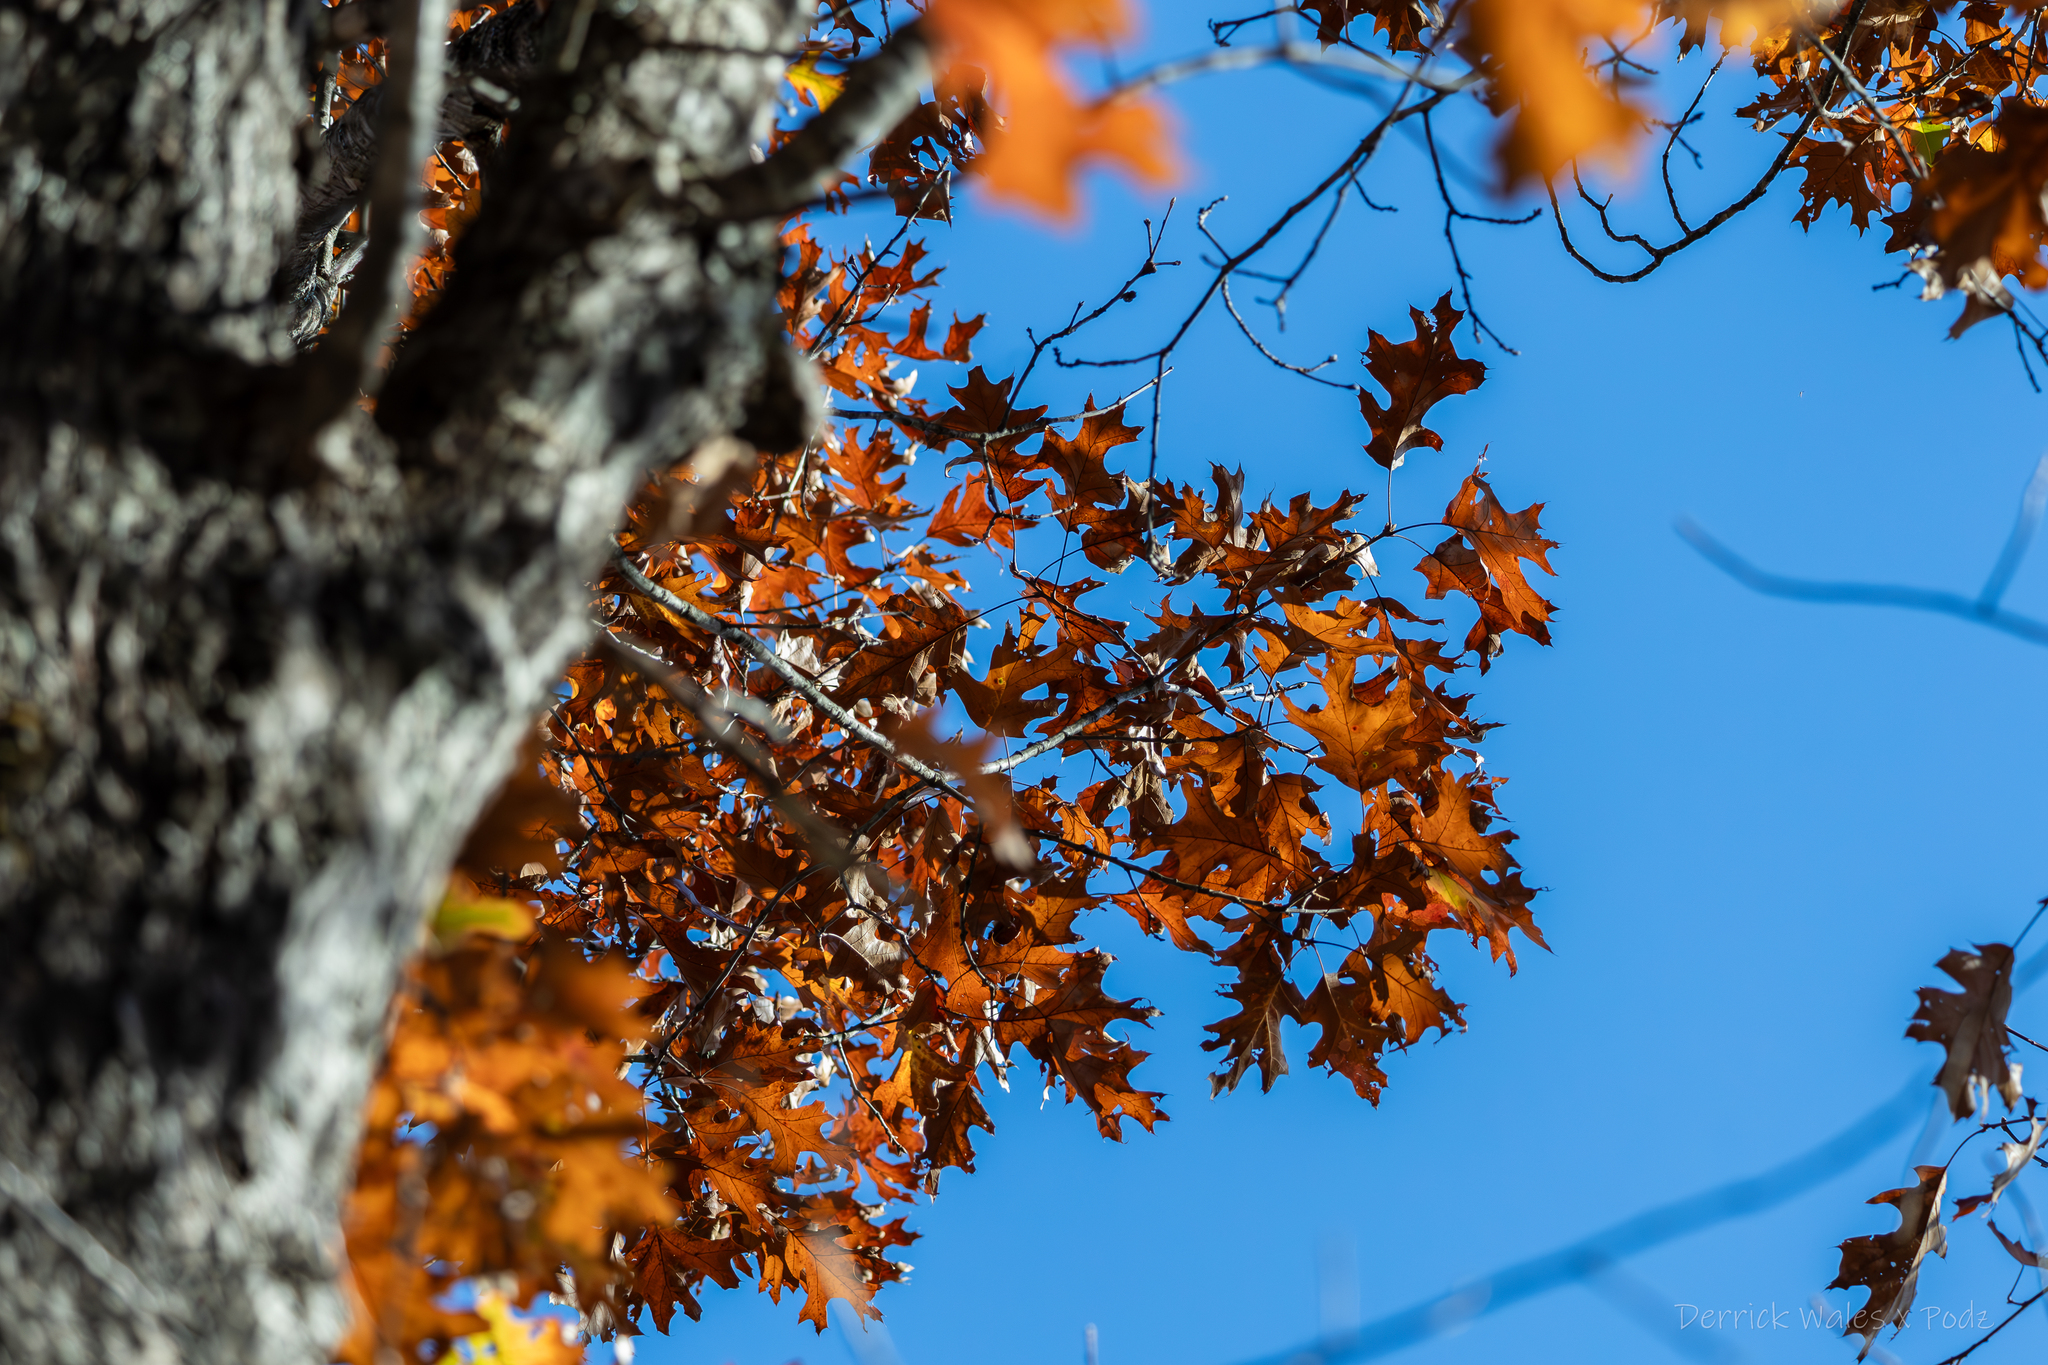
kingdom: Plantae
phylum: Tracheophyta
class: Magnoliopsida
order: Fagales
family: Fagaceae
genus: Quercus
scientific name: Quercus rubra
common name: Red oak
